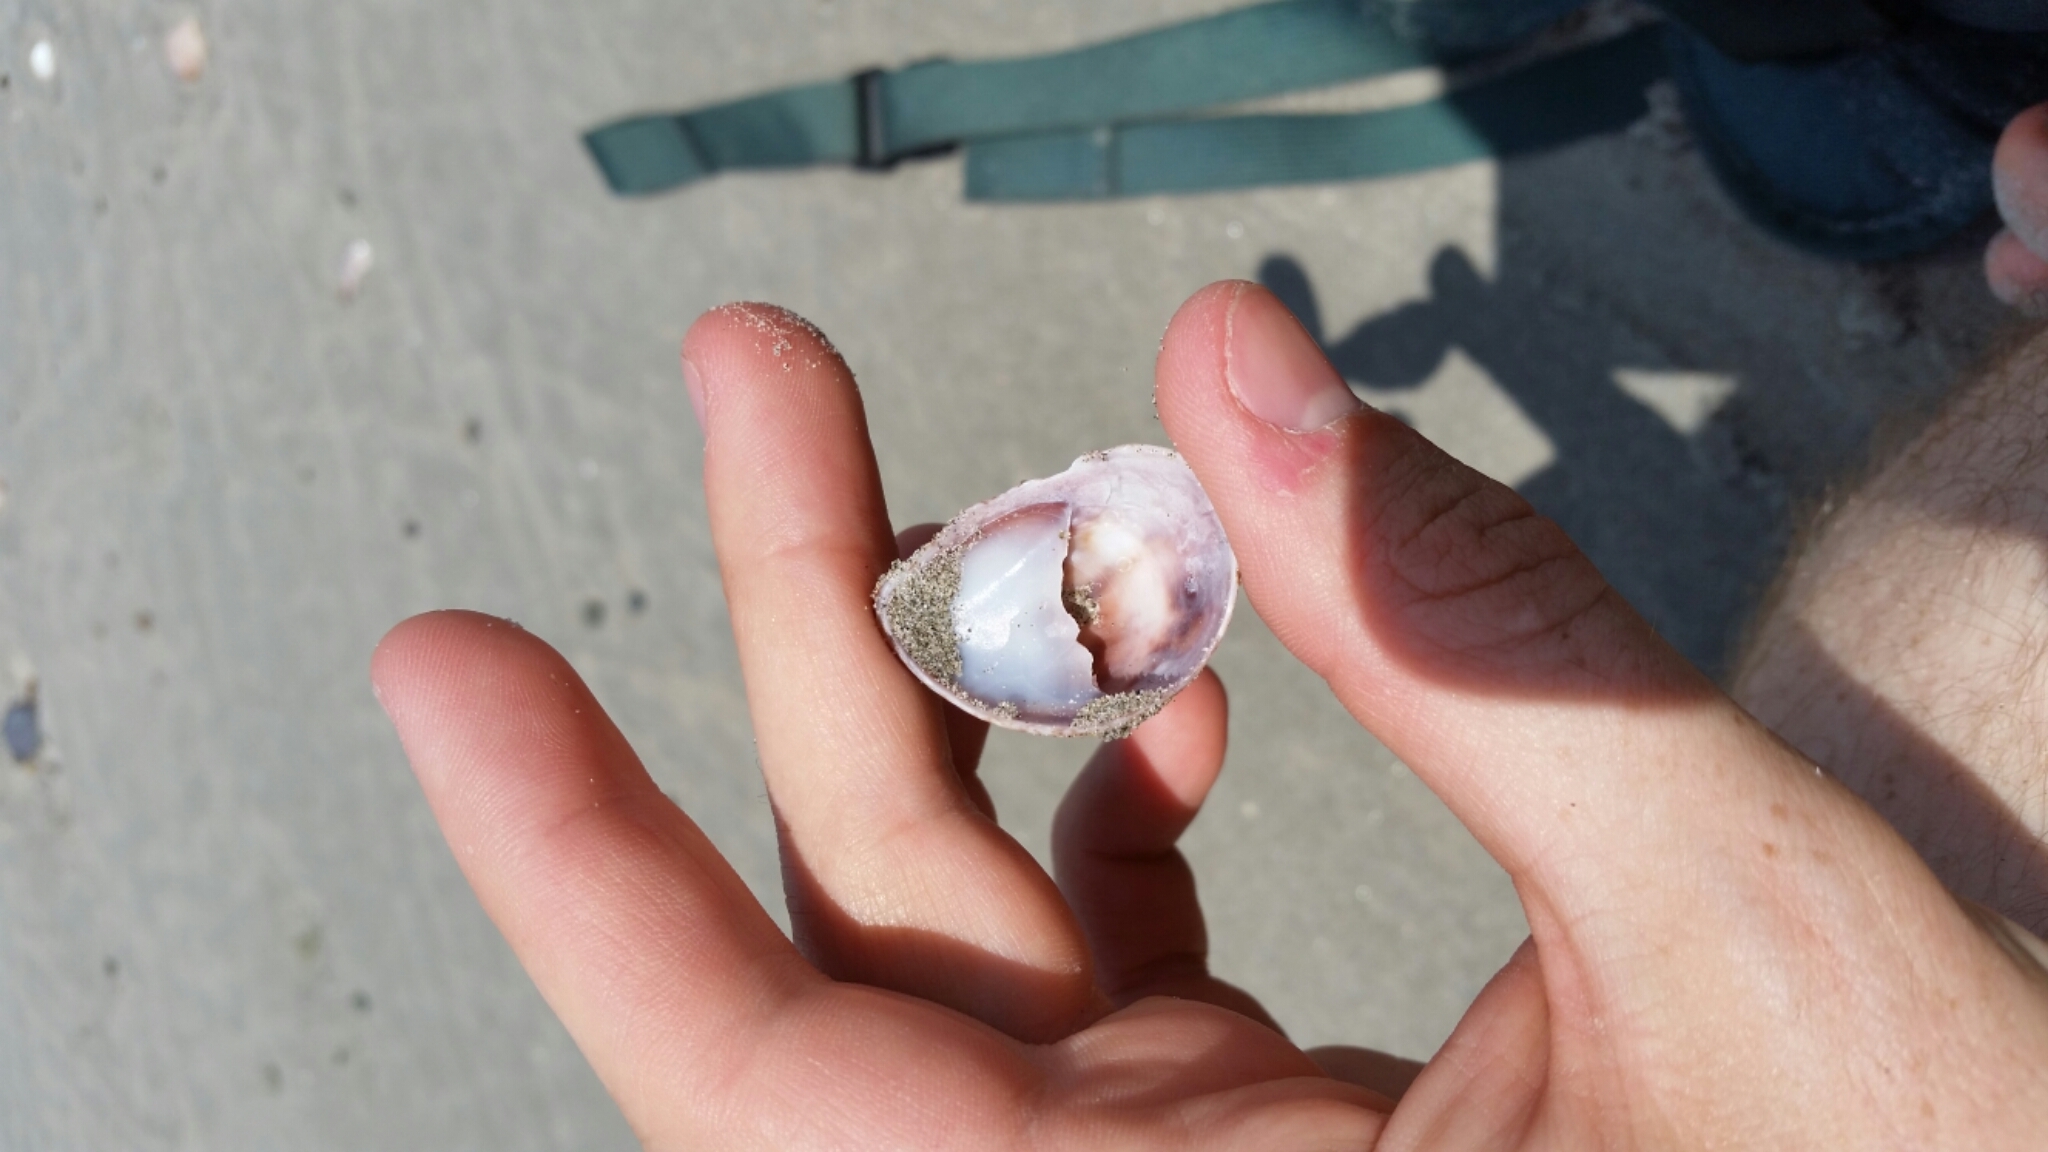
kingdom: Animalia
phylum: Mollusca
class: Gastropoda
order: Littorinimorpha
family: Calyptraeidae
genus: Crepidula
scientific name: Crepidula fornicata
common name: Slipper limpet
